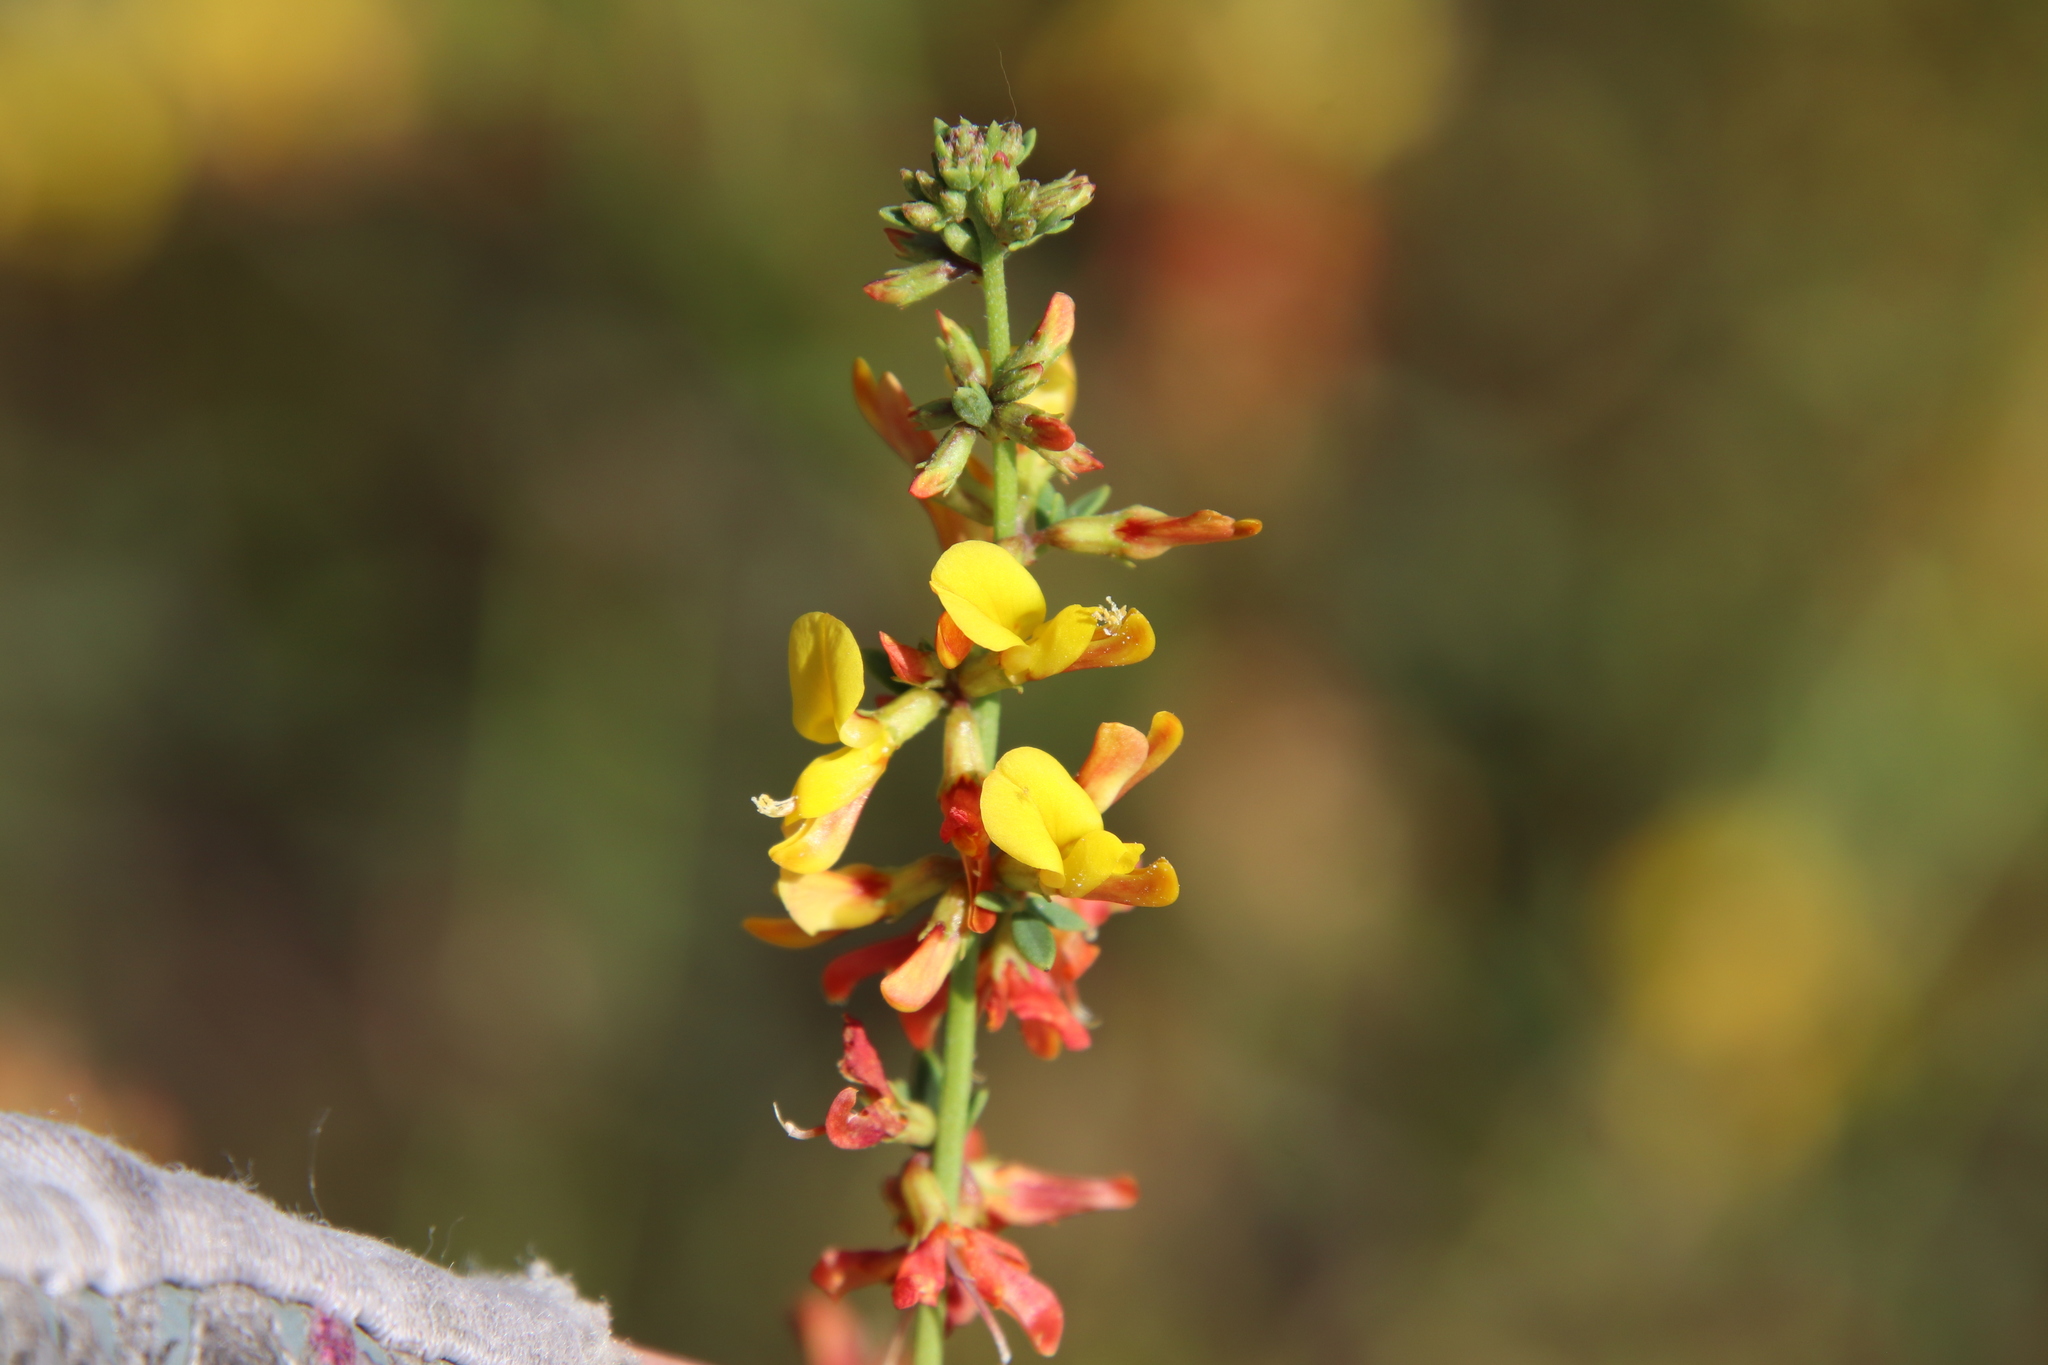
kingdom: Plantae
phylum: Tracheophyta
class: Magnoliopsida
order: Fabales
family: Fabaceae
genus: Acmispon
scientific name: Acmispon glaber
